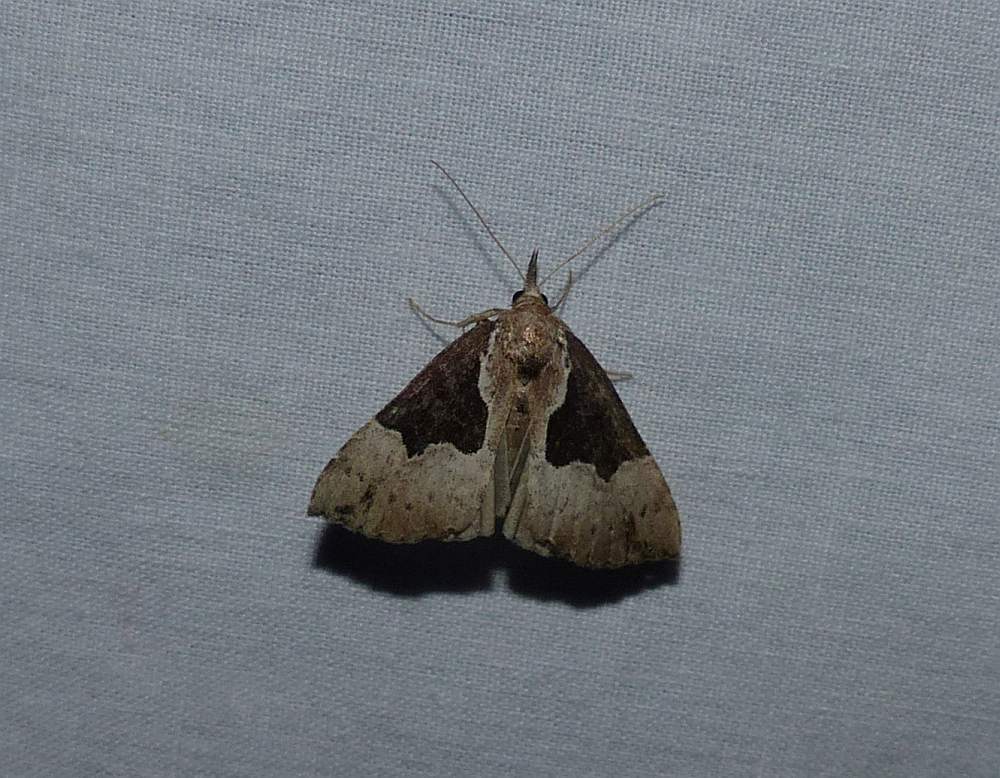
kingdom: Animalia
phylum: Arthropoda
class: Insecta
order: Lepidoptera
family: Erebidae
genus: Hypena
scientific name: Hypena bijugalis
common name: Dimorphic bomolocha moth
